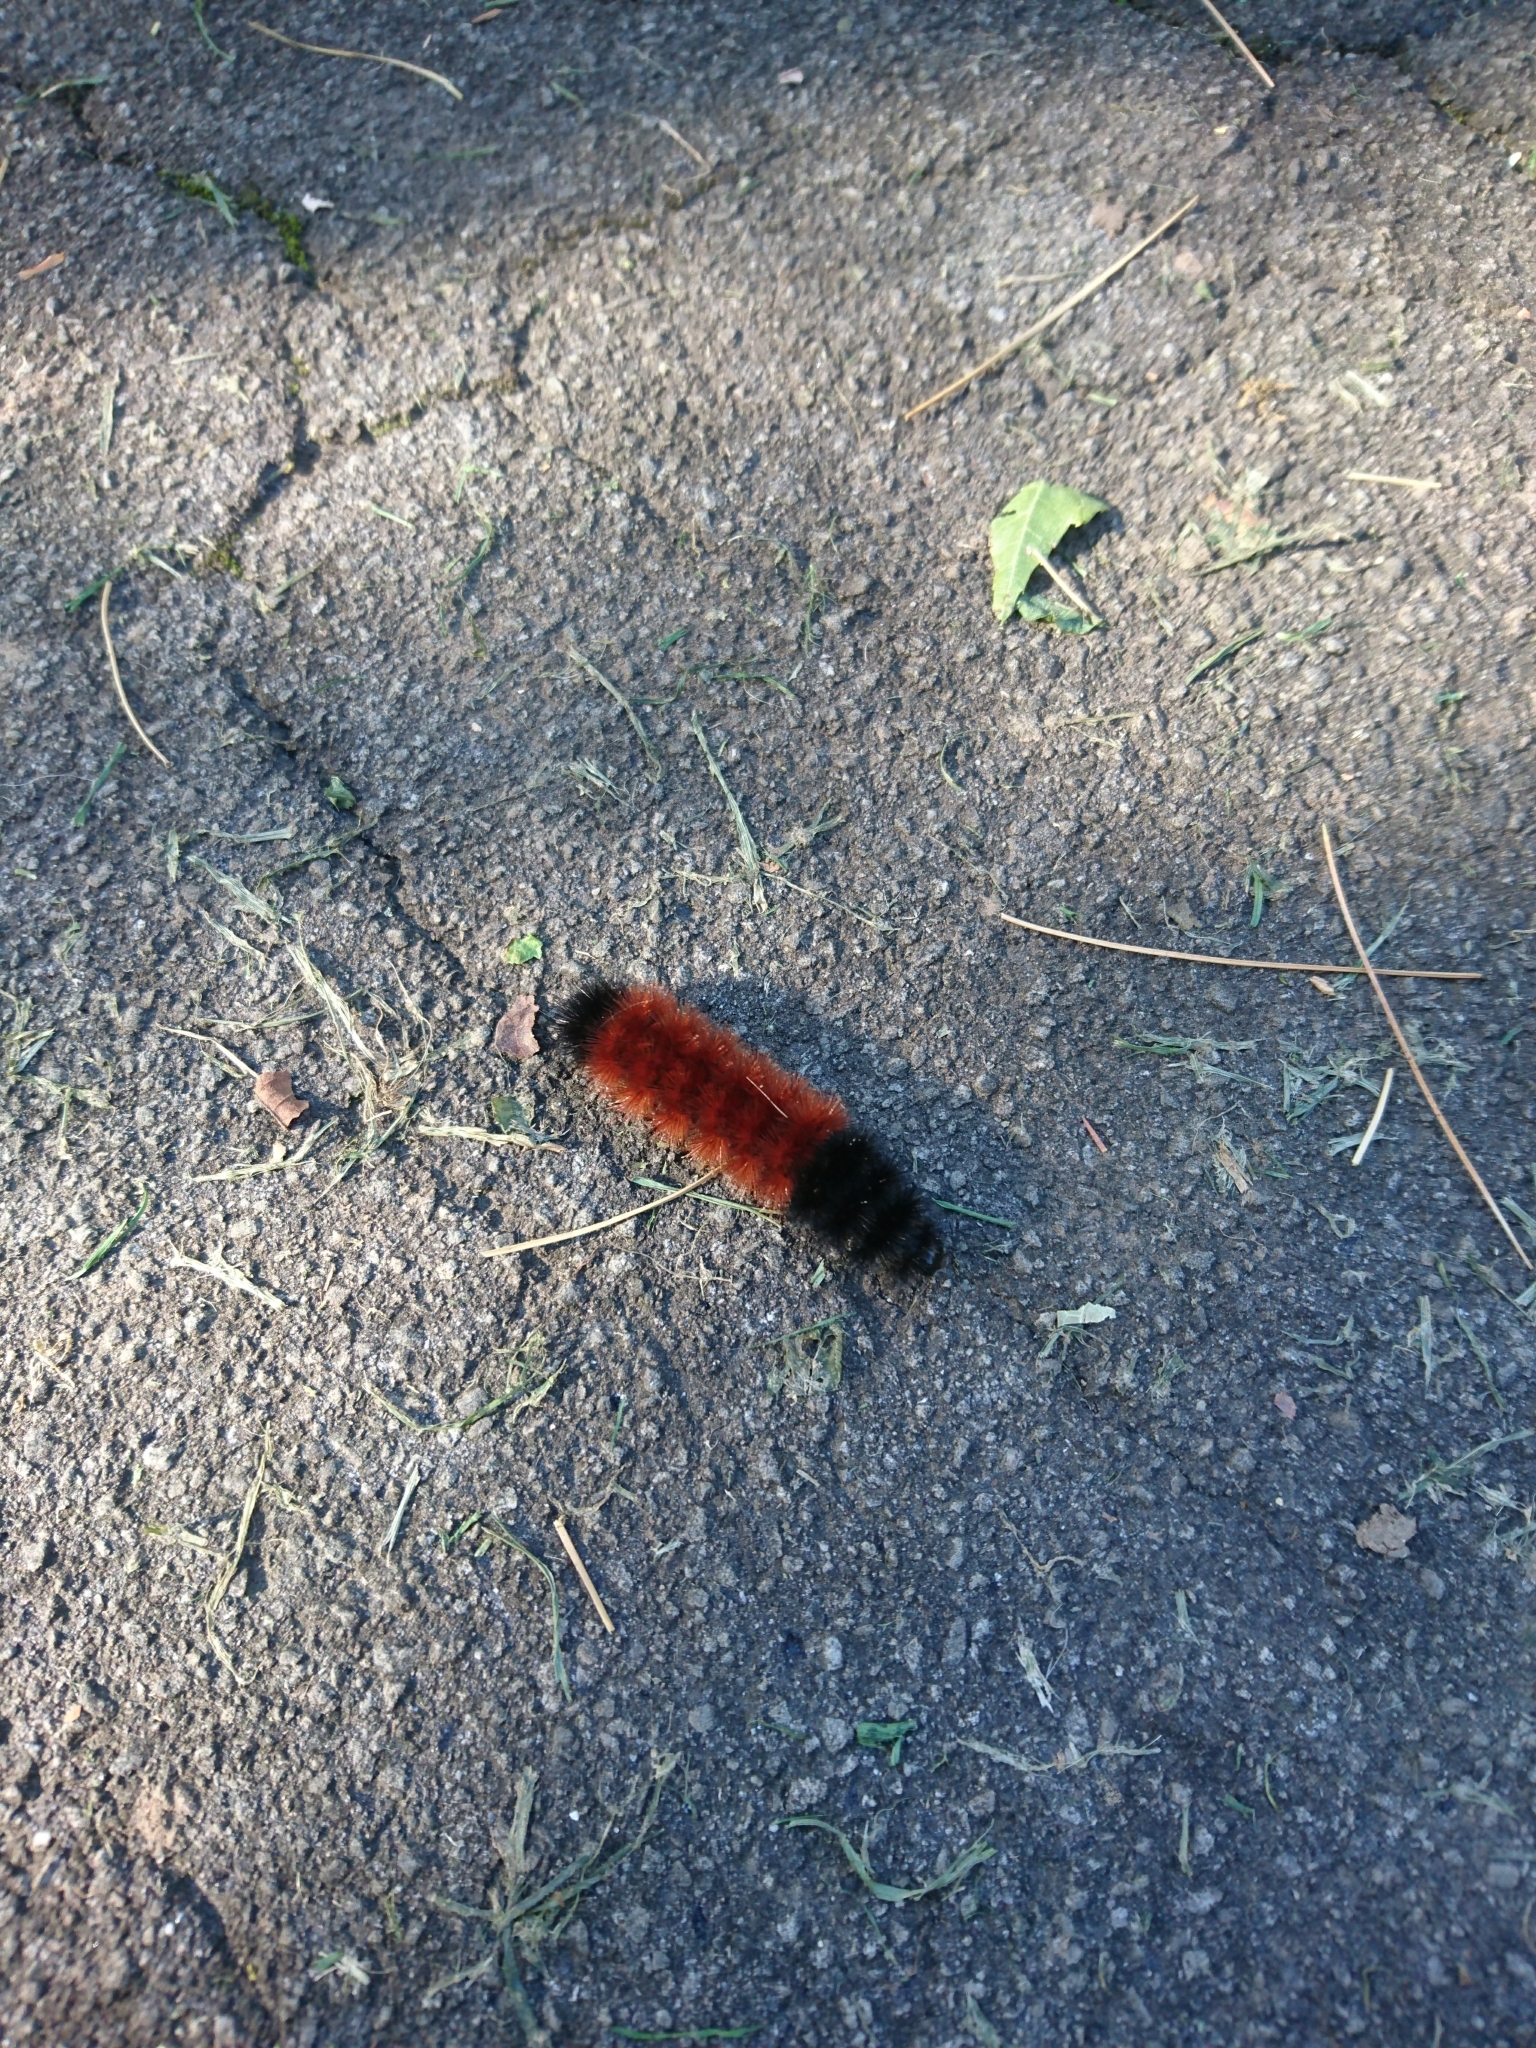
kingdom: Animalia
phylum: Arthropoda
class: Insecta
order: Lepidoptera
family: Erebidae
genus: Pyrrharctia
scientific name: Pyrrharctia isabella
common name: Isabella tiger moth
